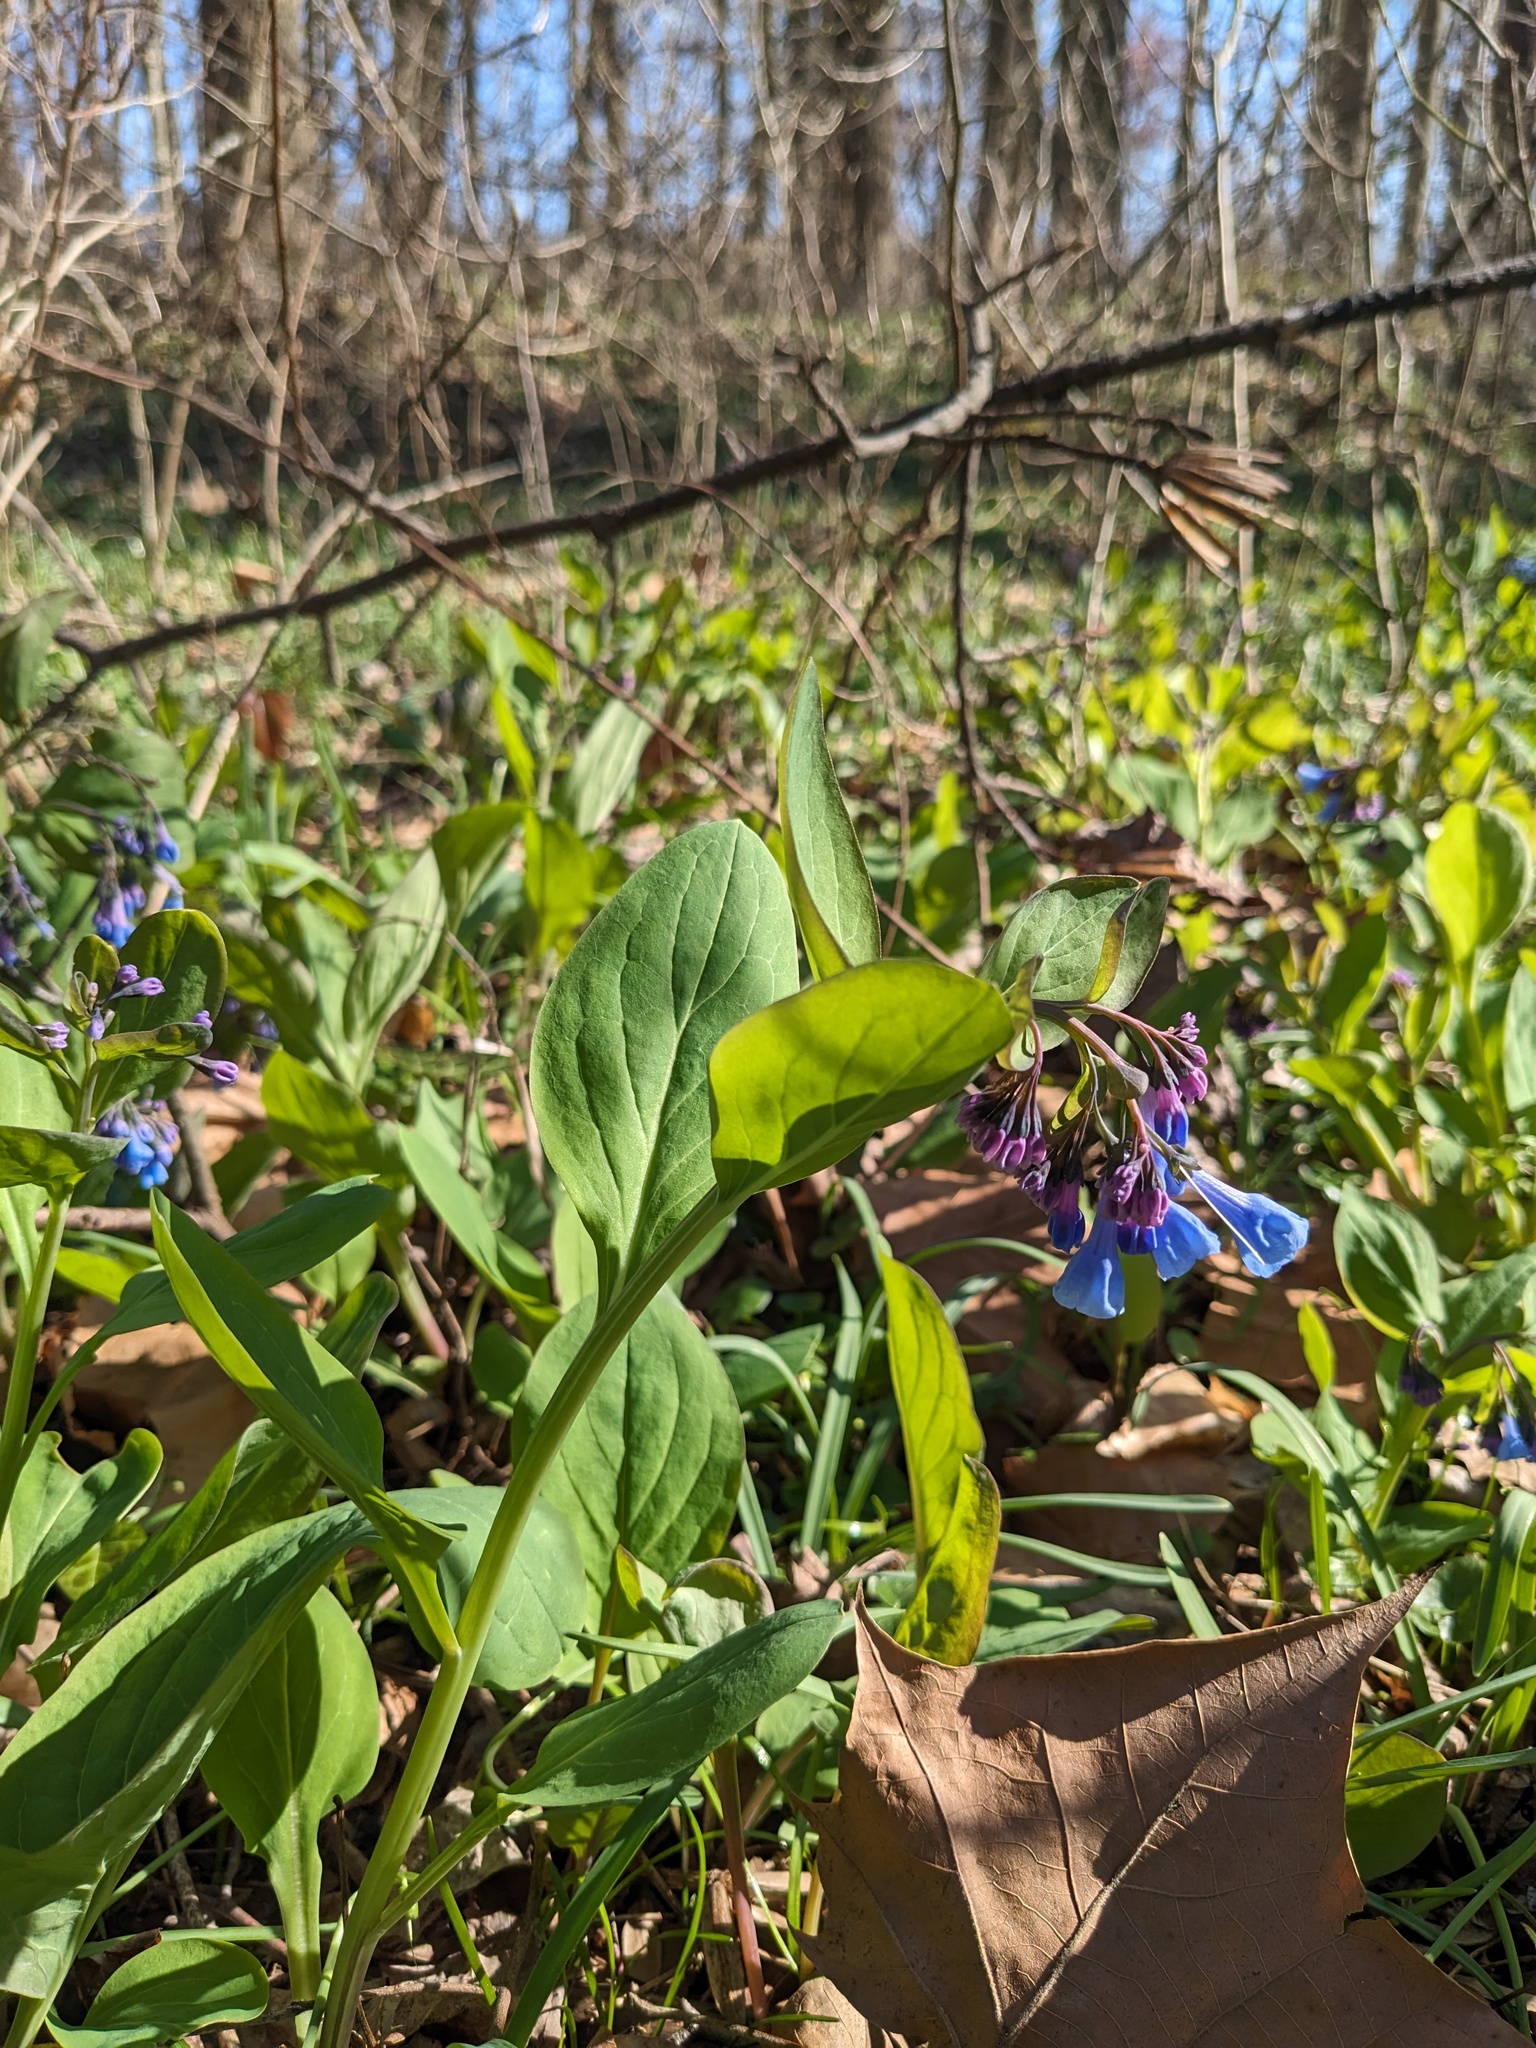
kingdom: Plantae
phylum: Tracheophyta
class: Magnoliopsida
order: Boraginales
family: Boraginaceae
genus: Mertensia
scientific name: Mertensia virginica
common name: Virginia bluebells
